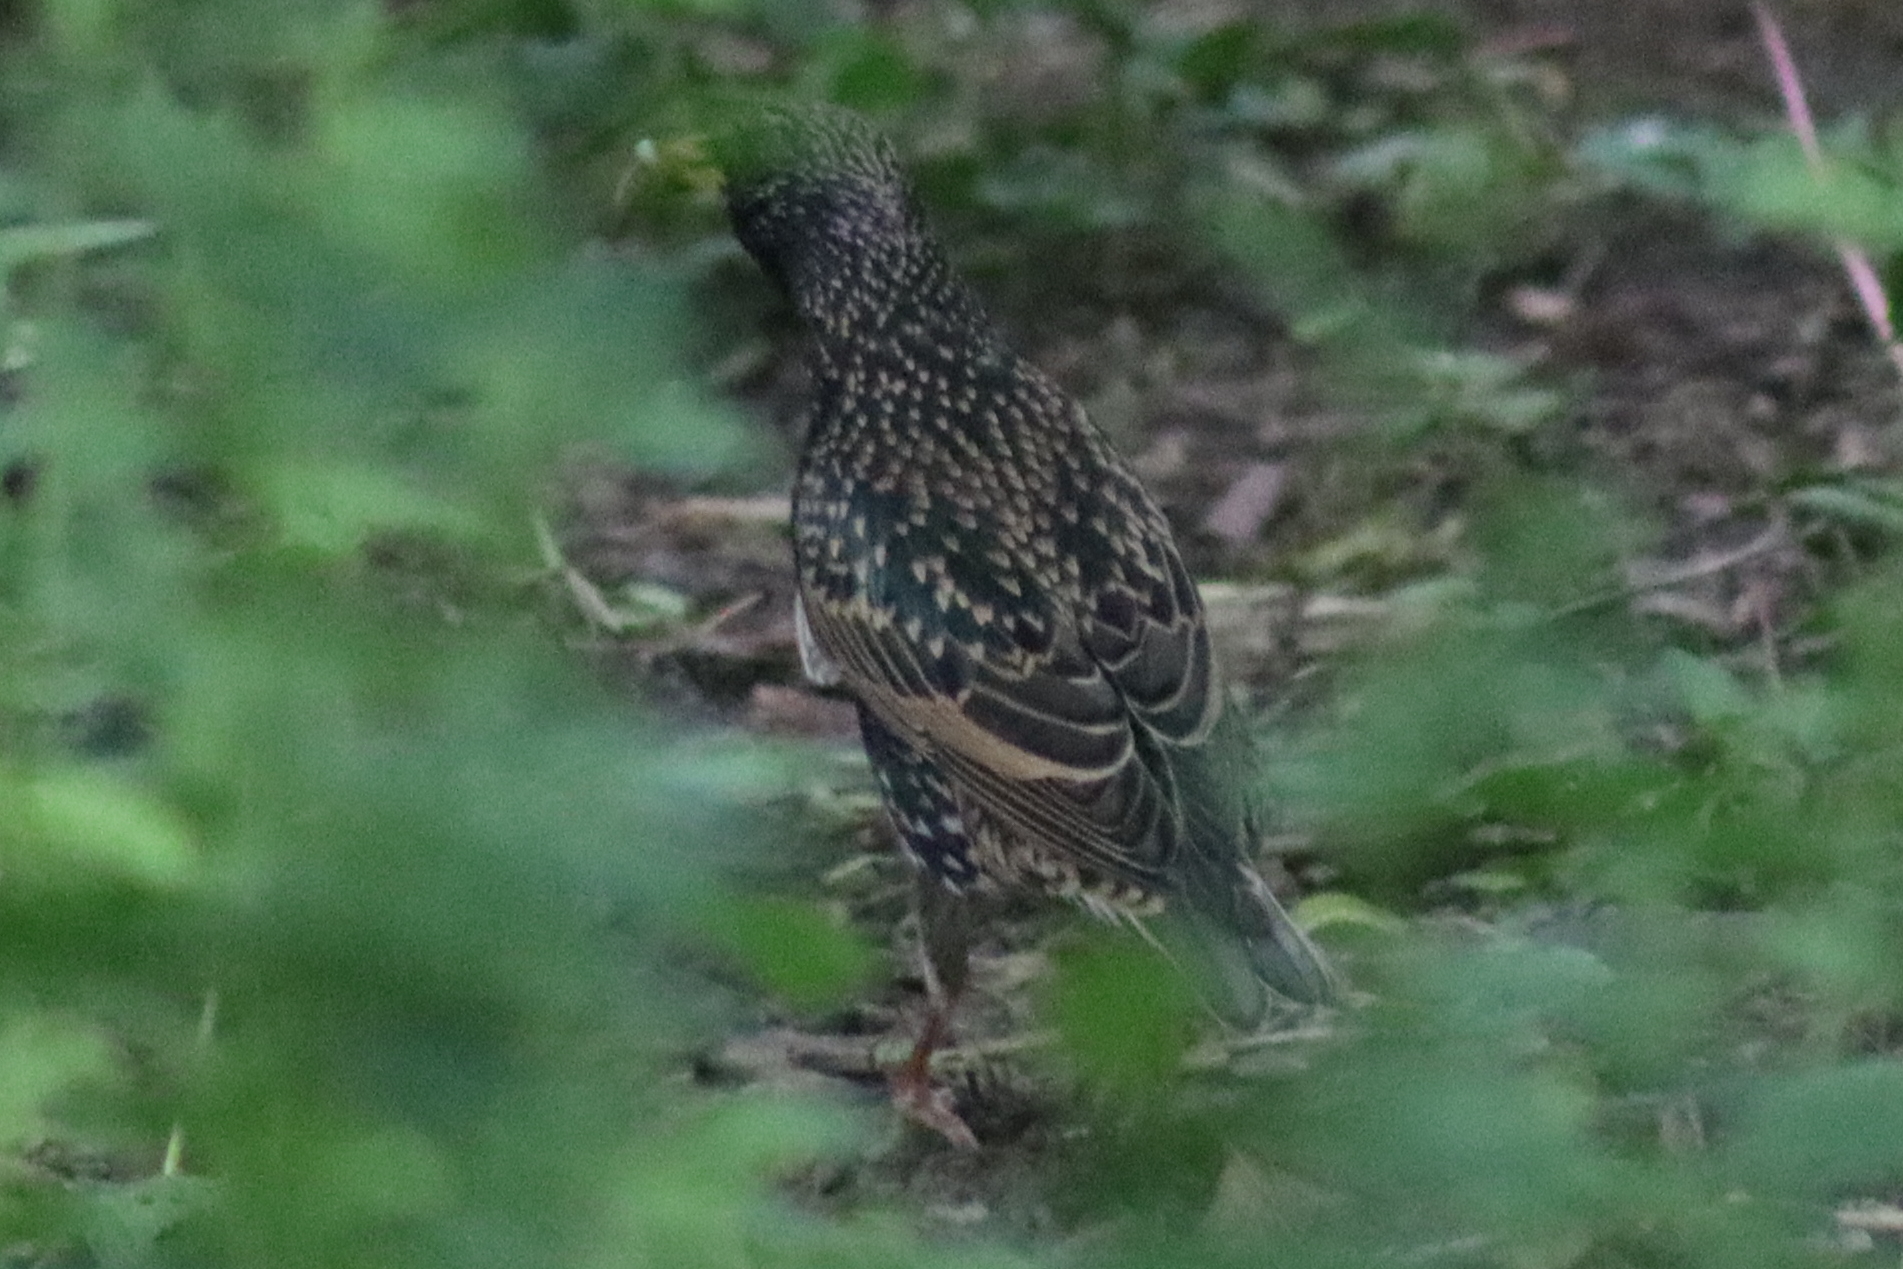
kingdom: Animalia
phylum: Chordata
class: Aves
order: Passeriformes
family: Sturnidae
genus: Sturnus
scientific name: Sturnus vulgaris
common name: Common starling
